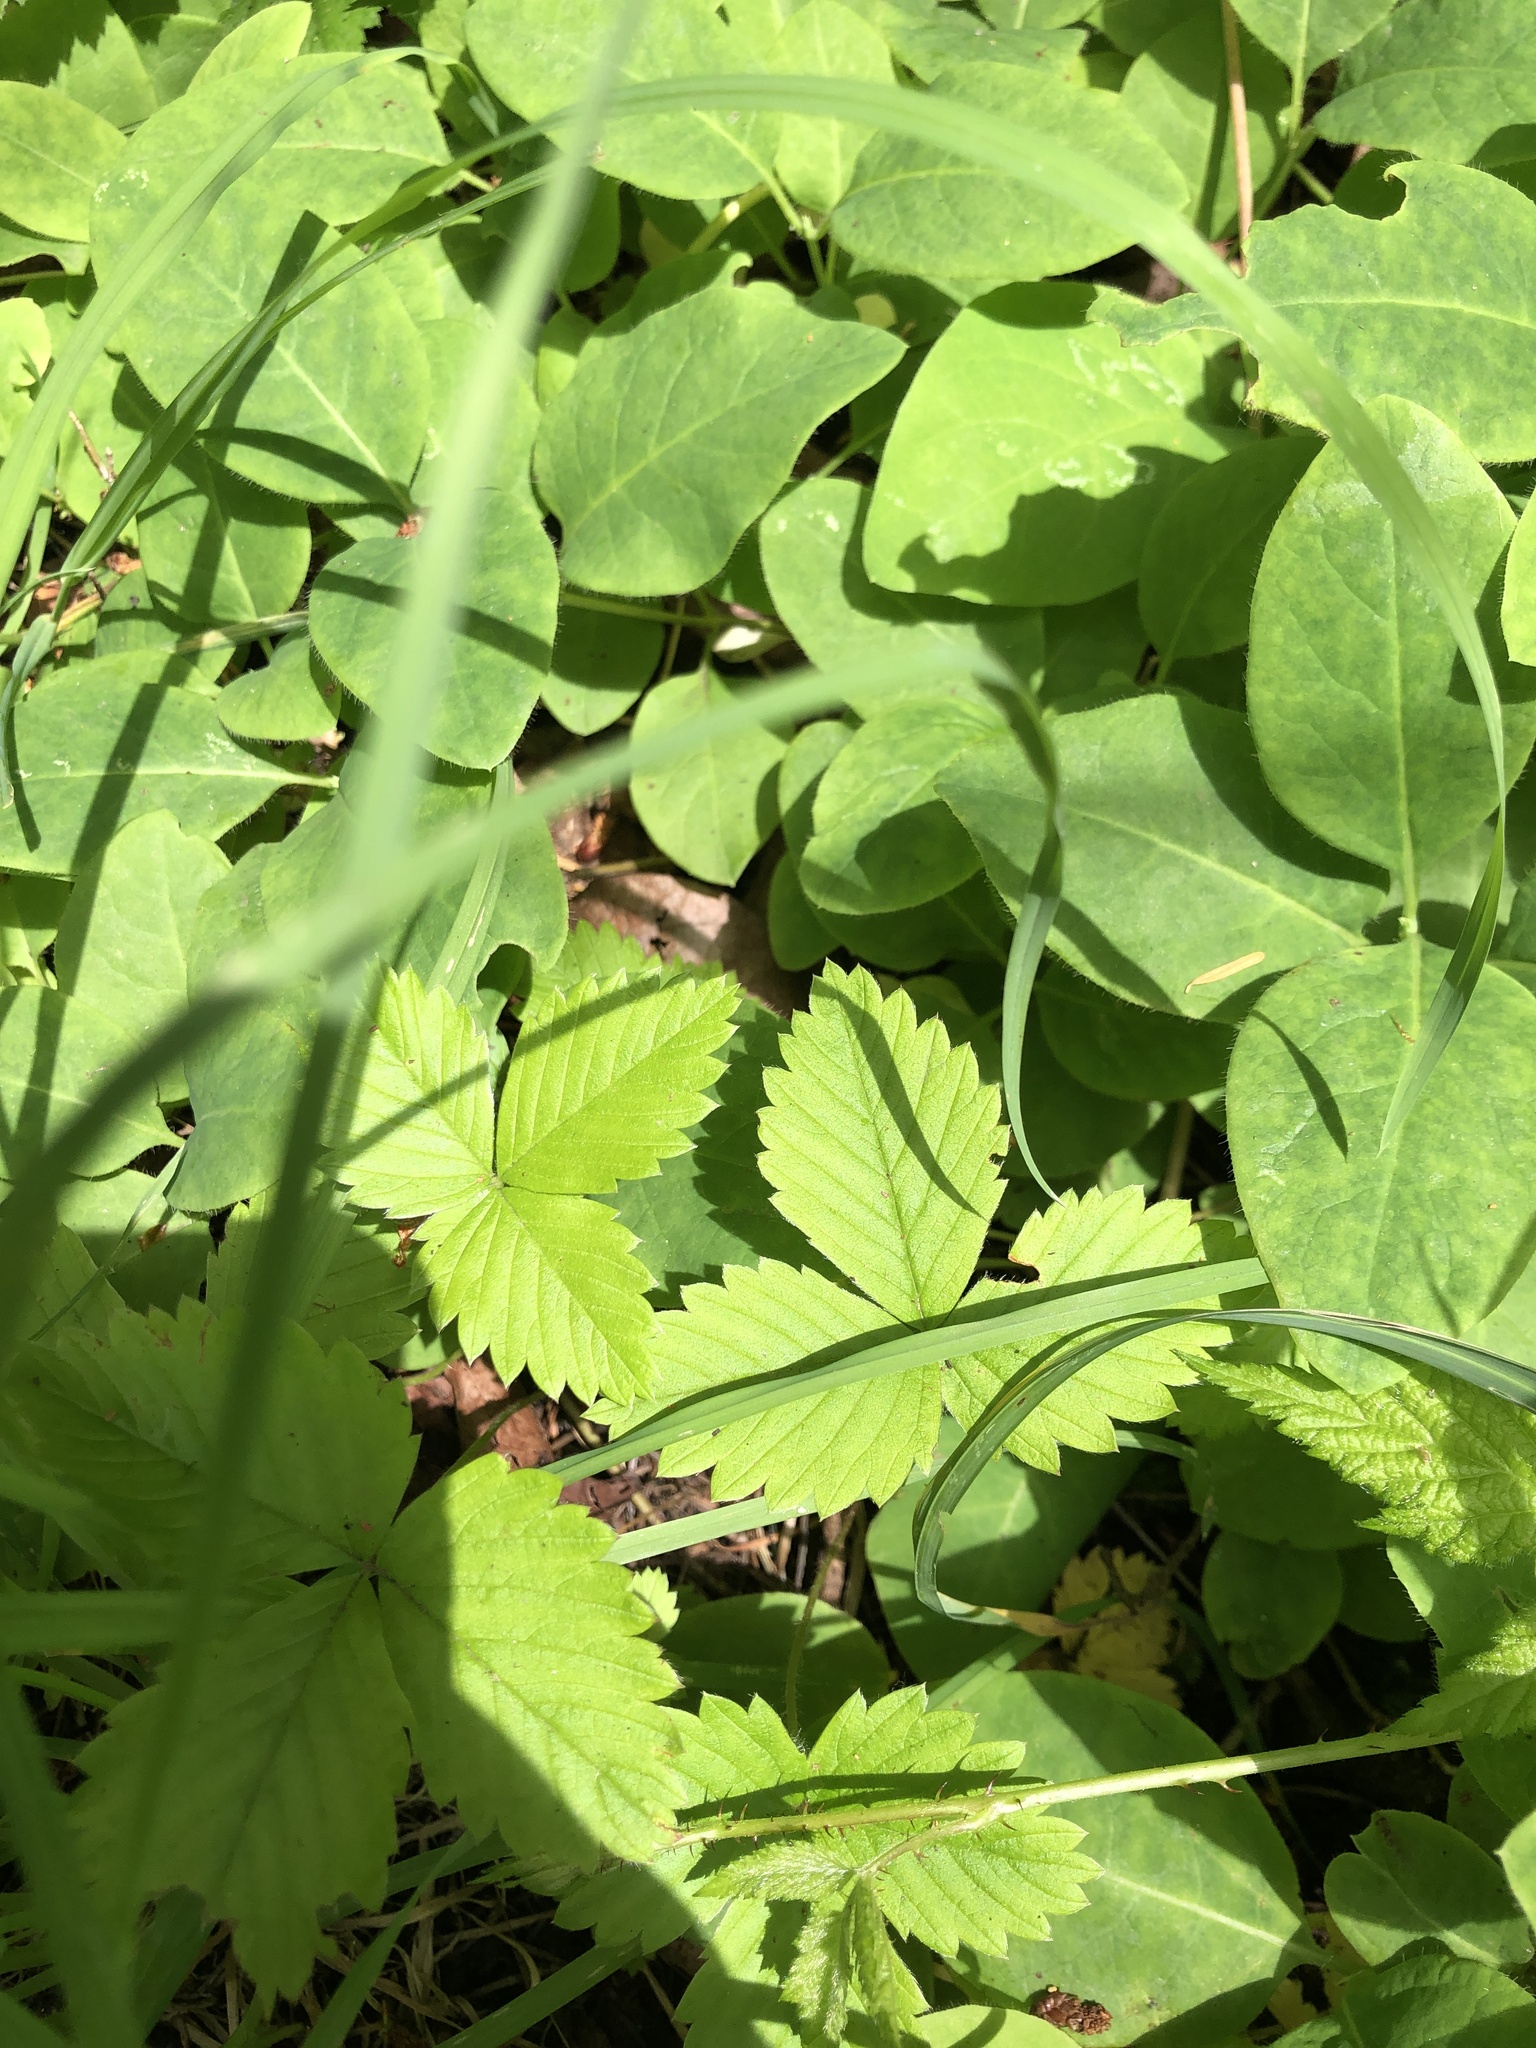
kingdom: Plantae
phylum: Tracheophyta
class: Magnoliopsida
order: Rosales
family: Rosaceae
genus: Fragaria
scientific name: Fragaria vesca
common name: Wild strawberry
